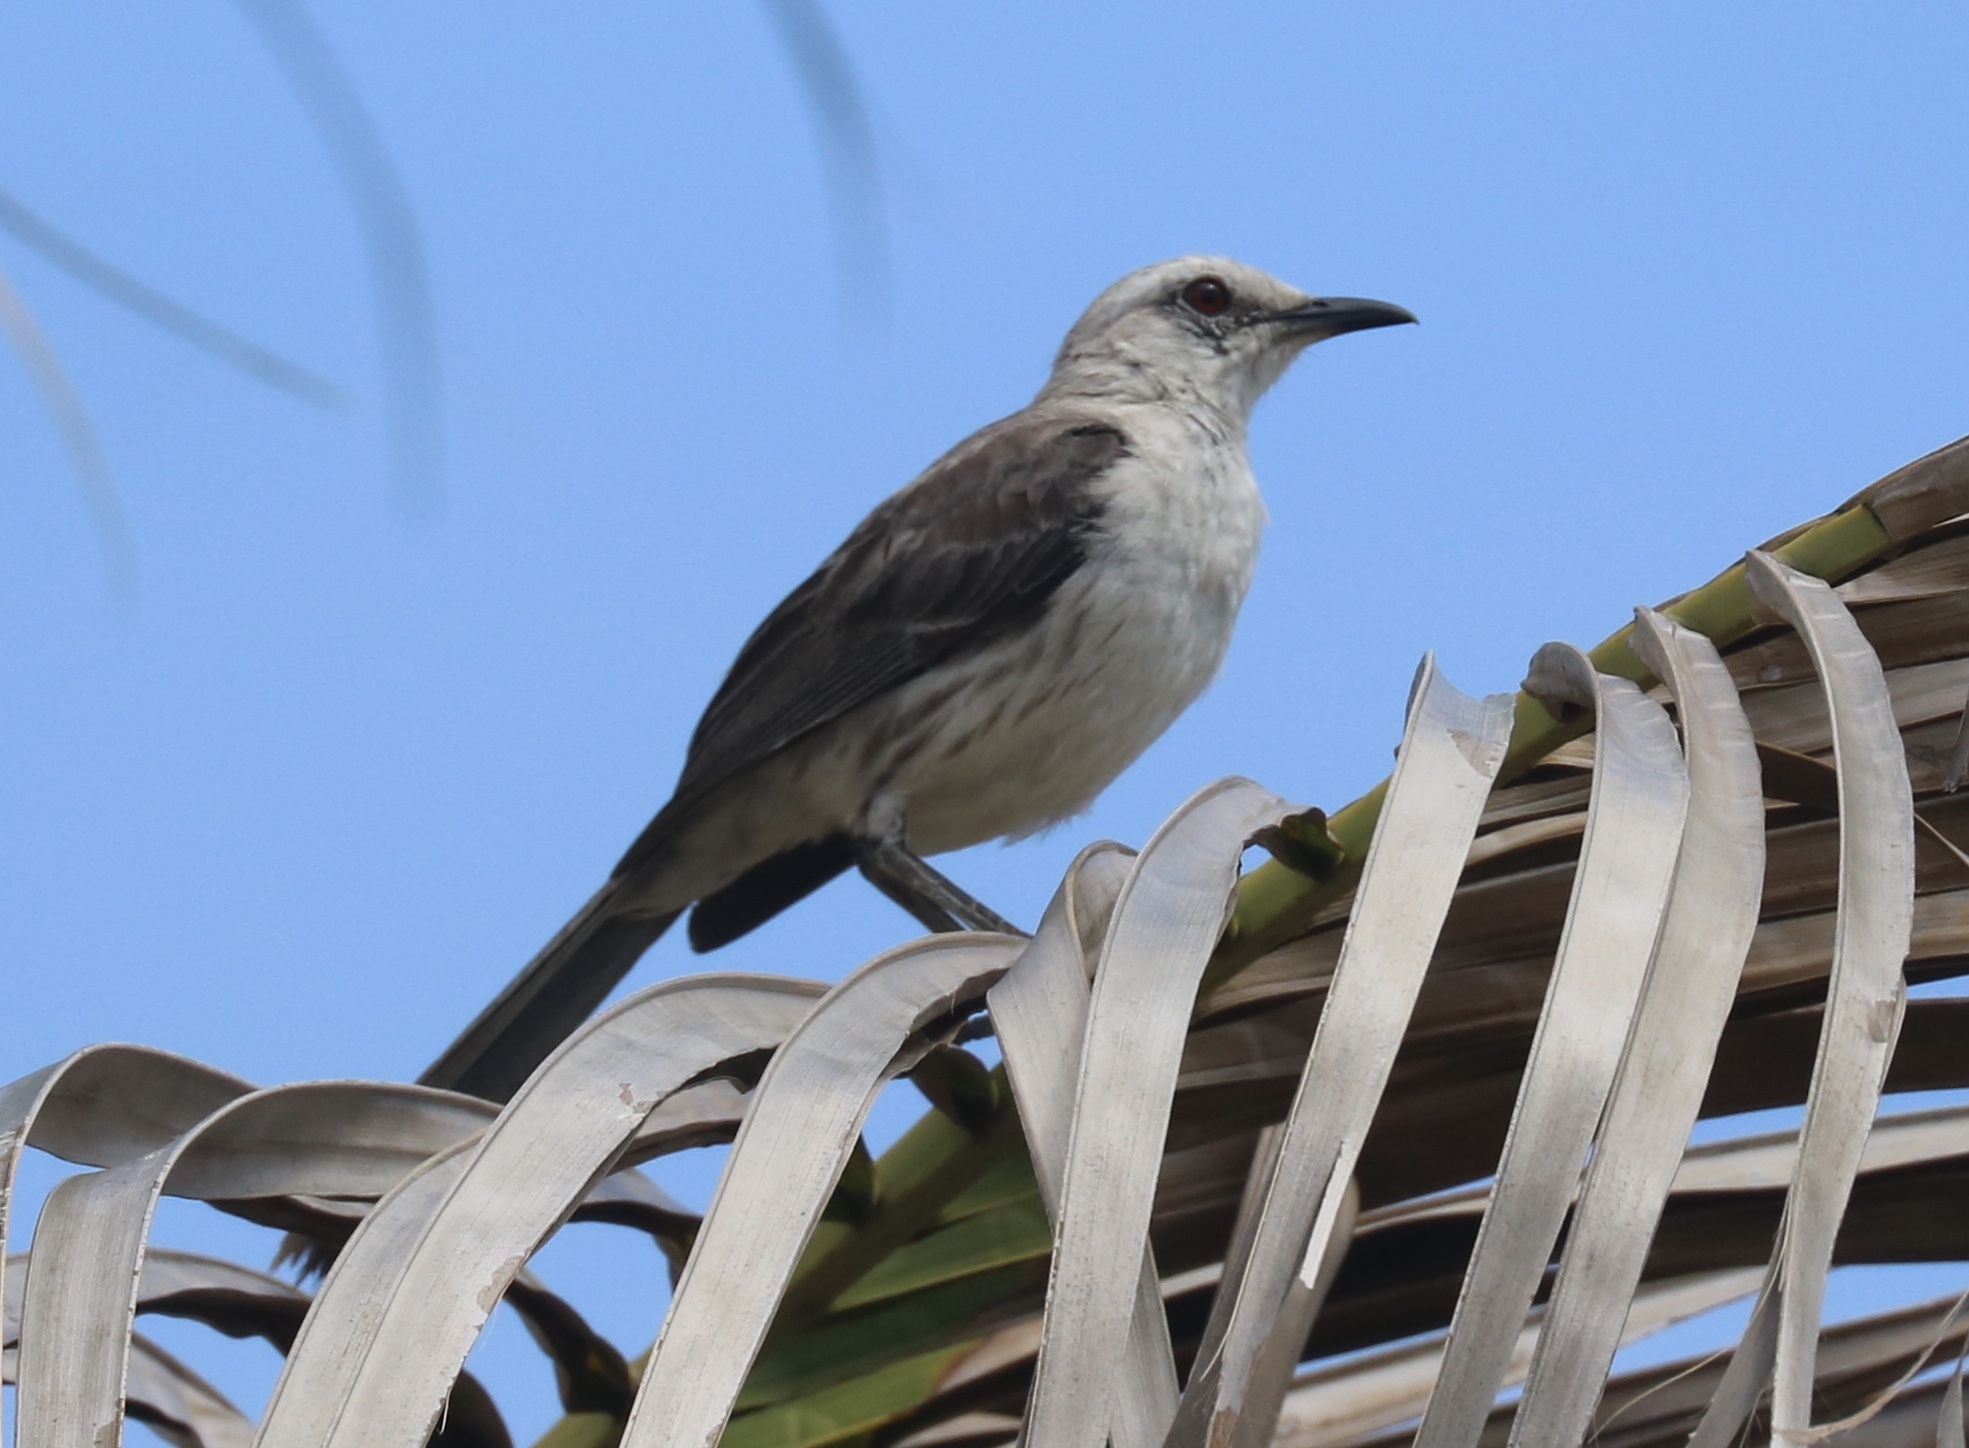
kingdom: Animalia
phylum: Chordata
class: Aves
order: Passeriformes
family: Mimidae
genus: Mimus
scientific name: Mimus gilvus
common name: Tropical mockingbird
